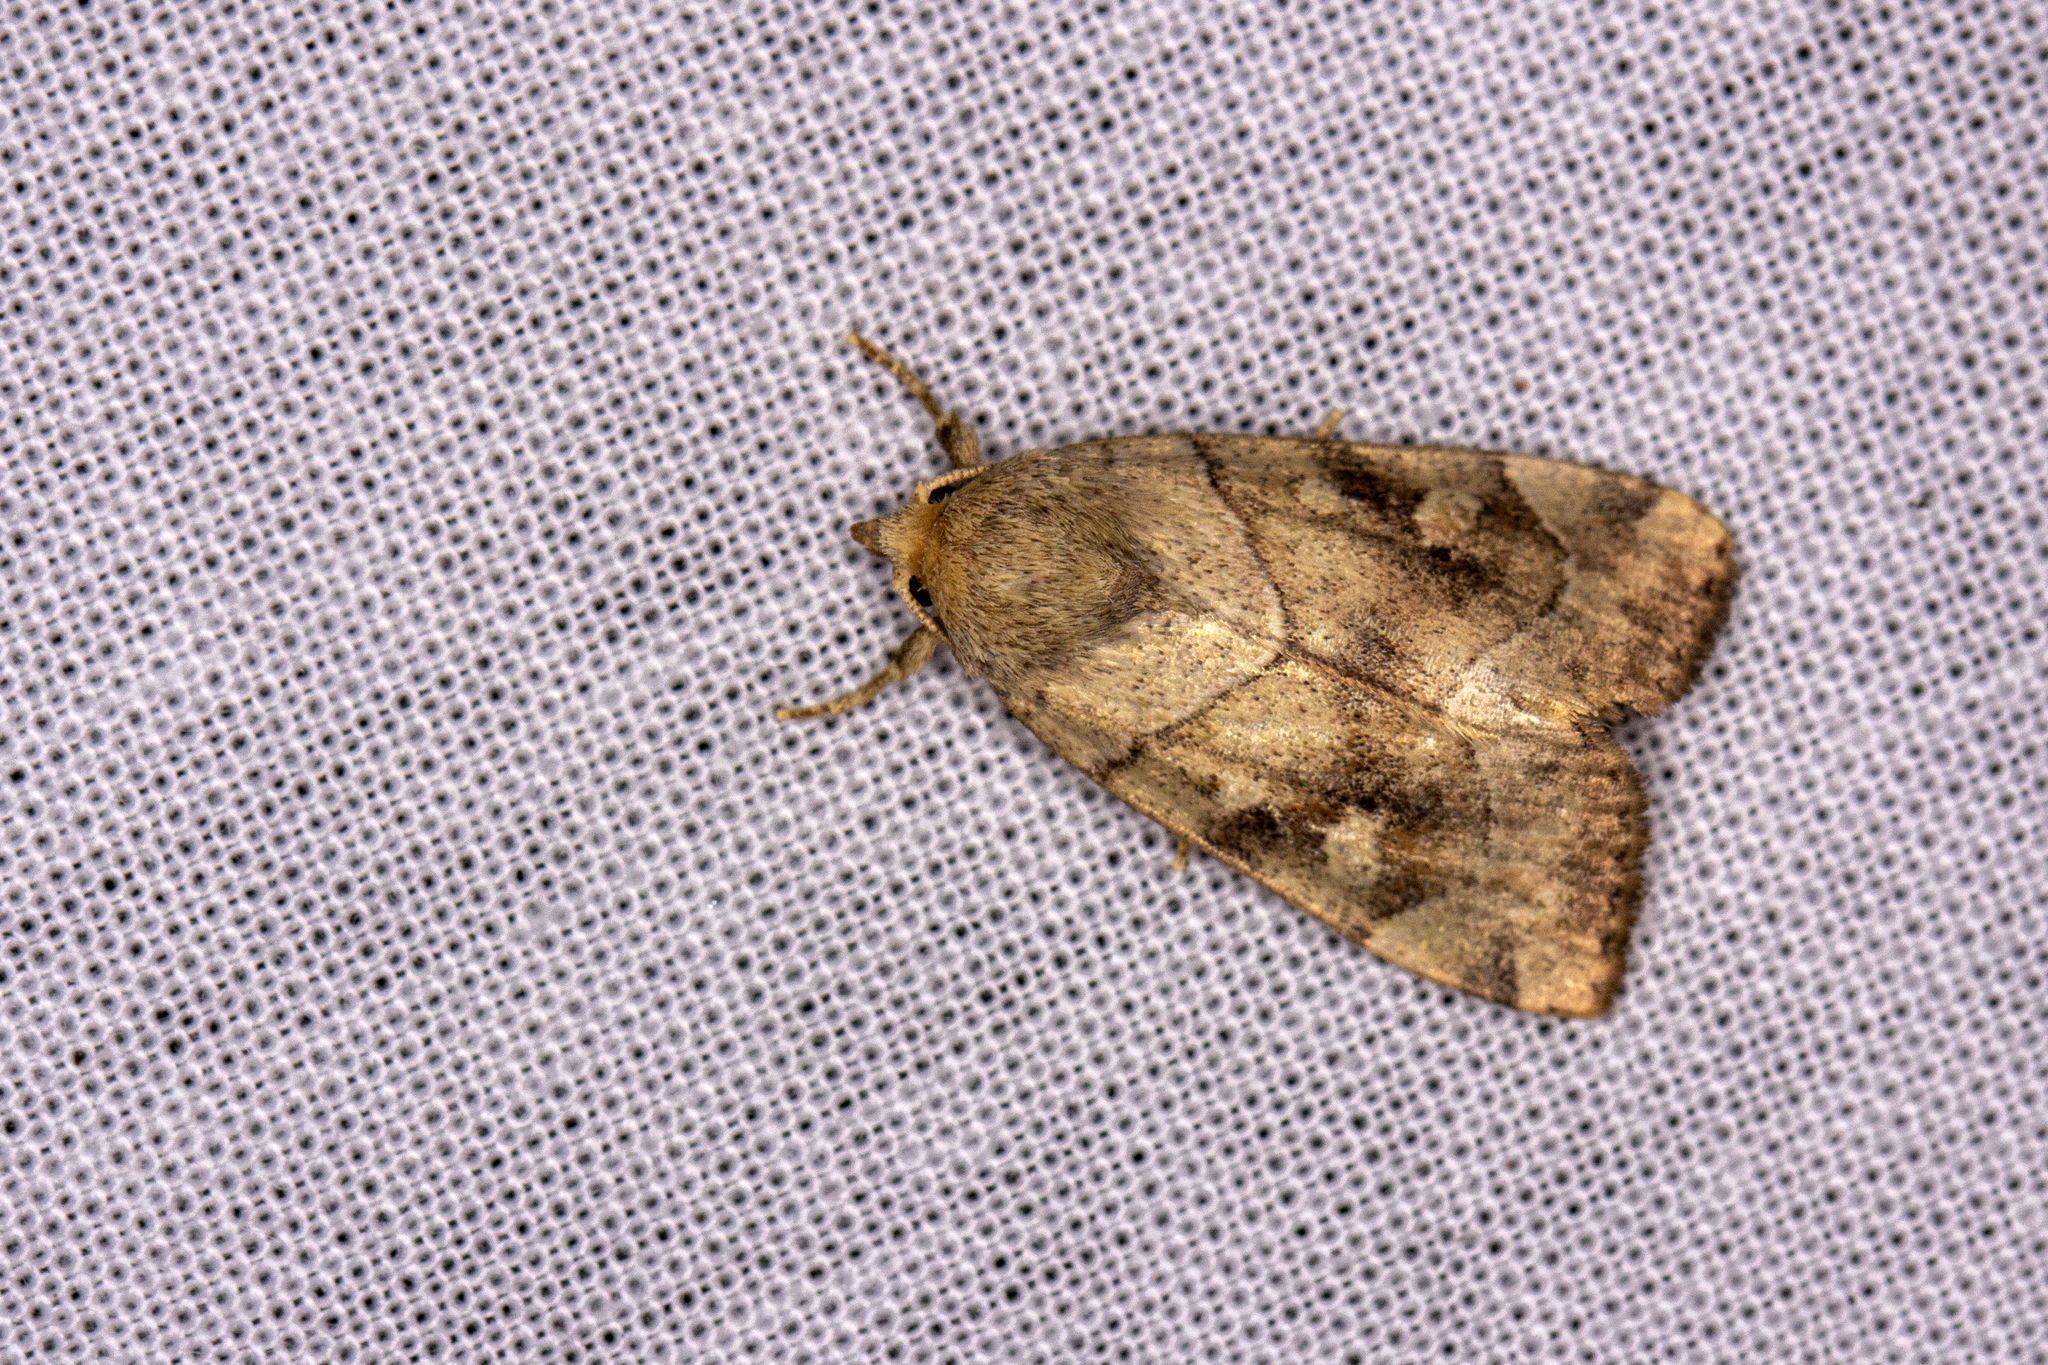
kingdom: Animalia
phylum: Arthropoda
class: Insecta
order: Lepidoptera
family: Noctuidae
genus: Cosmia
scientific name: Cosmia trapezina
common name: Dun-bar
